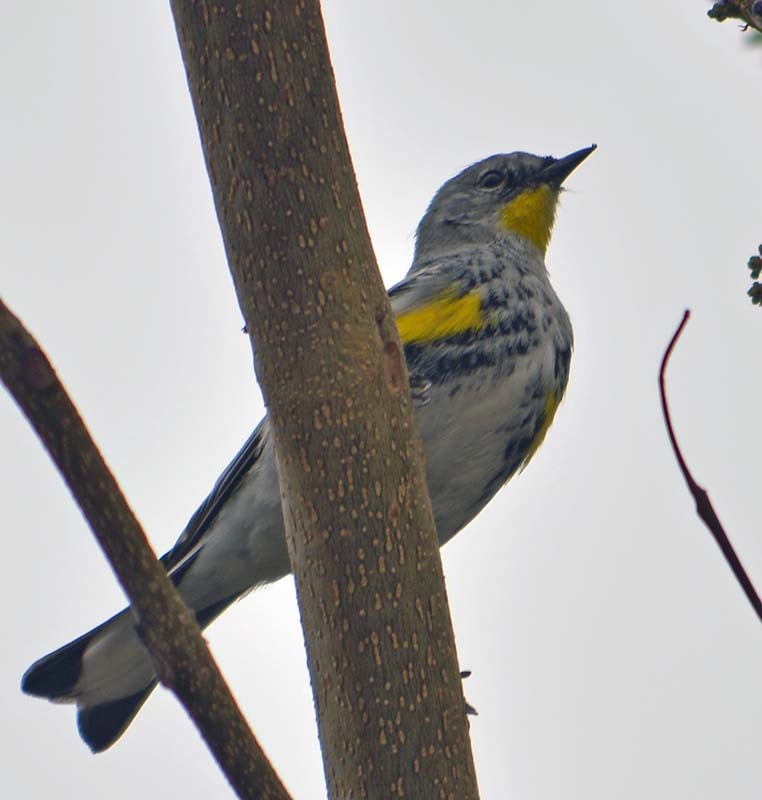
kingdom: Animalia
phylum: Chordata
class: Aves
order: Passeriformes
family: Parulidae
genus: Setophaga
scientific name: Setophaga coronata
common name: Myrtle warbler
